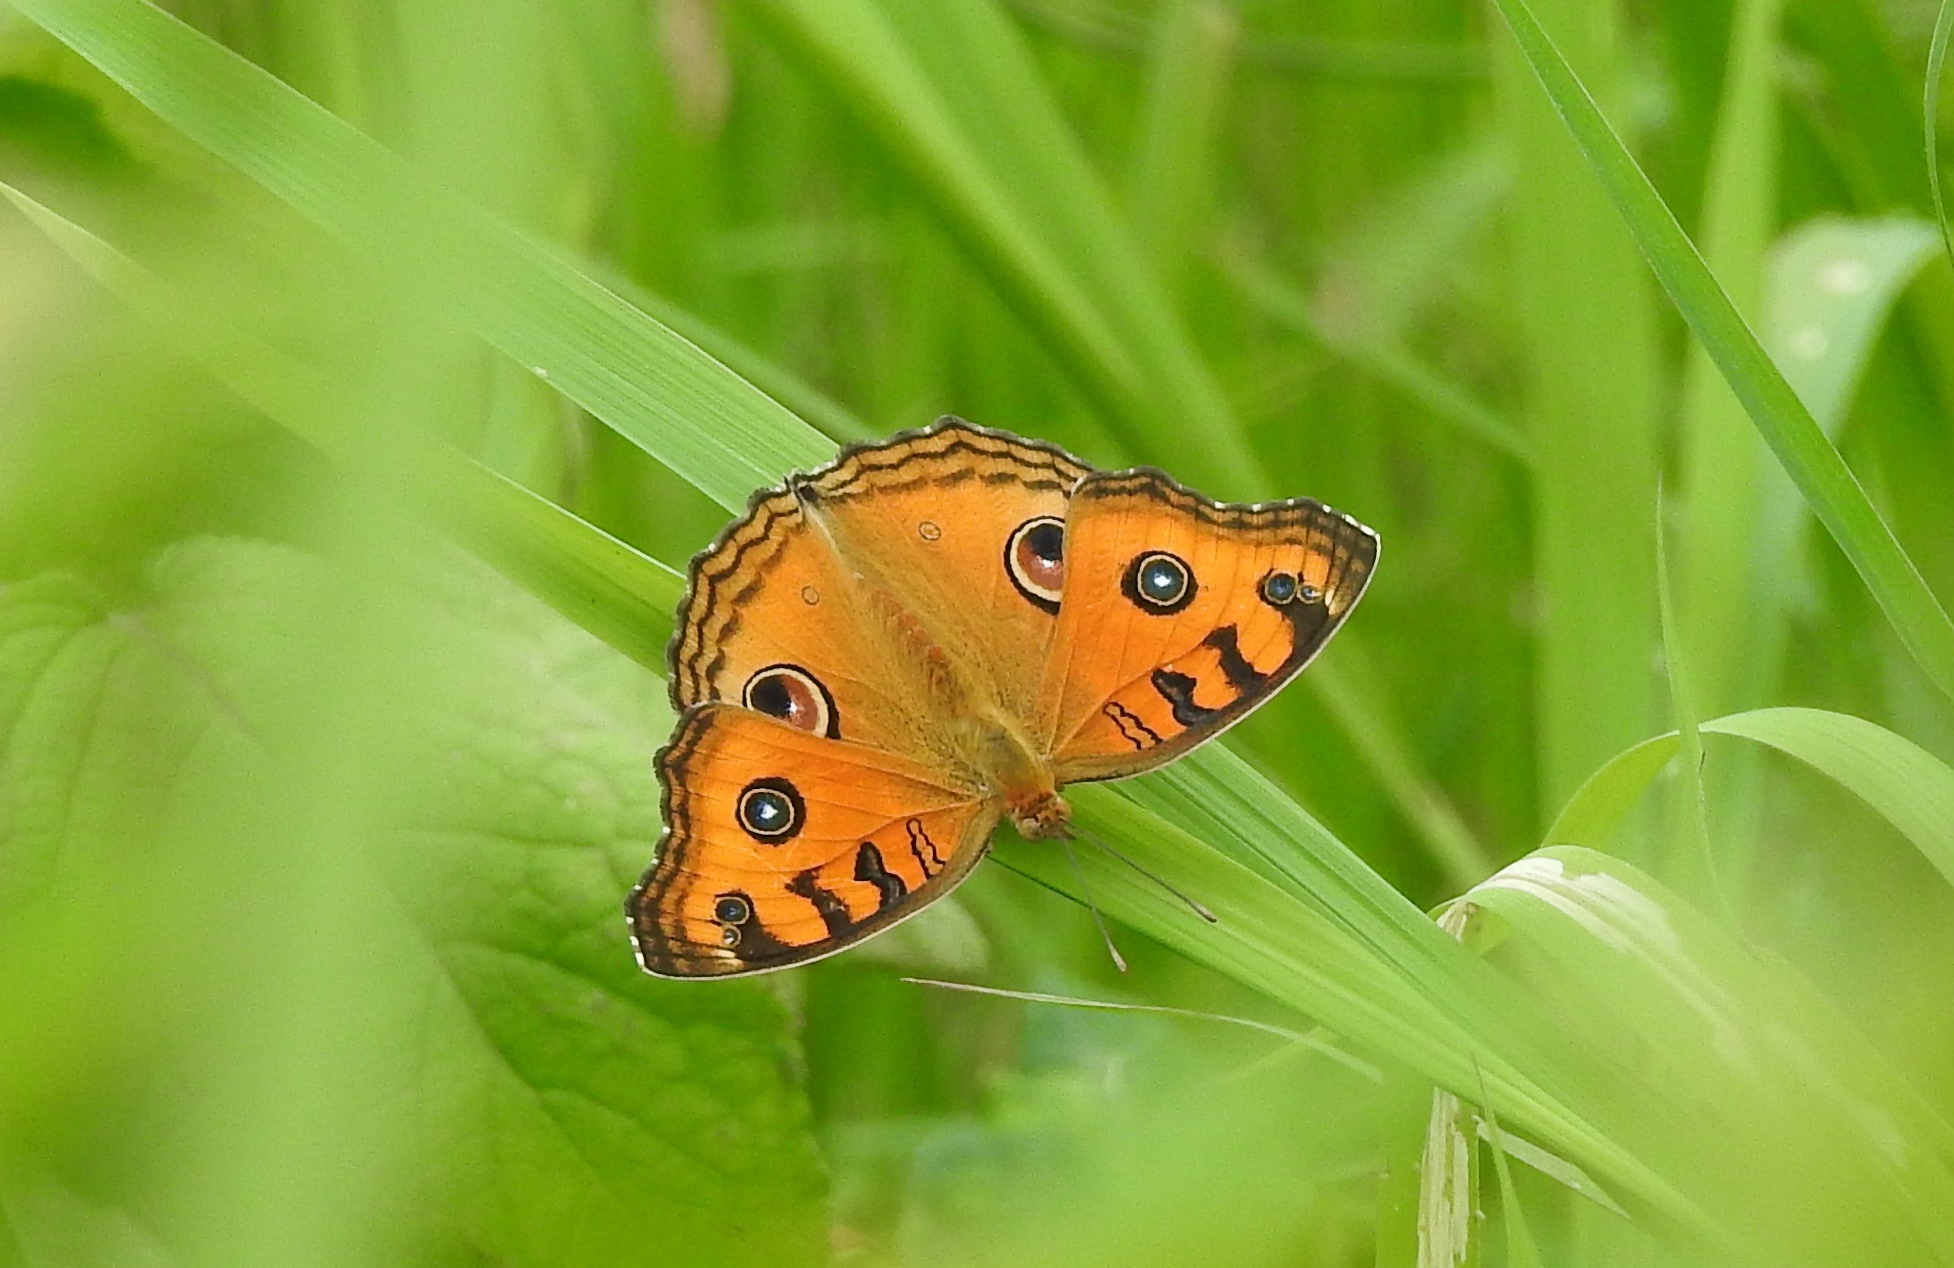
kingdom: Animalia
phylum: Arthropoda
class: Insecta
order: Lepidoptera
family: Nymphalidae
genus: Junonia
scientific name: Junonia almana
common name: Peacock pansy
